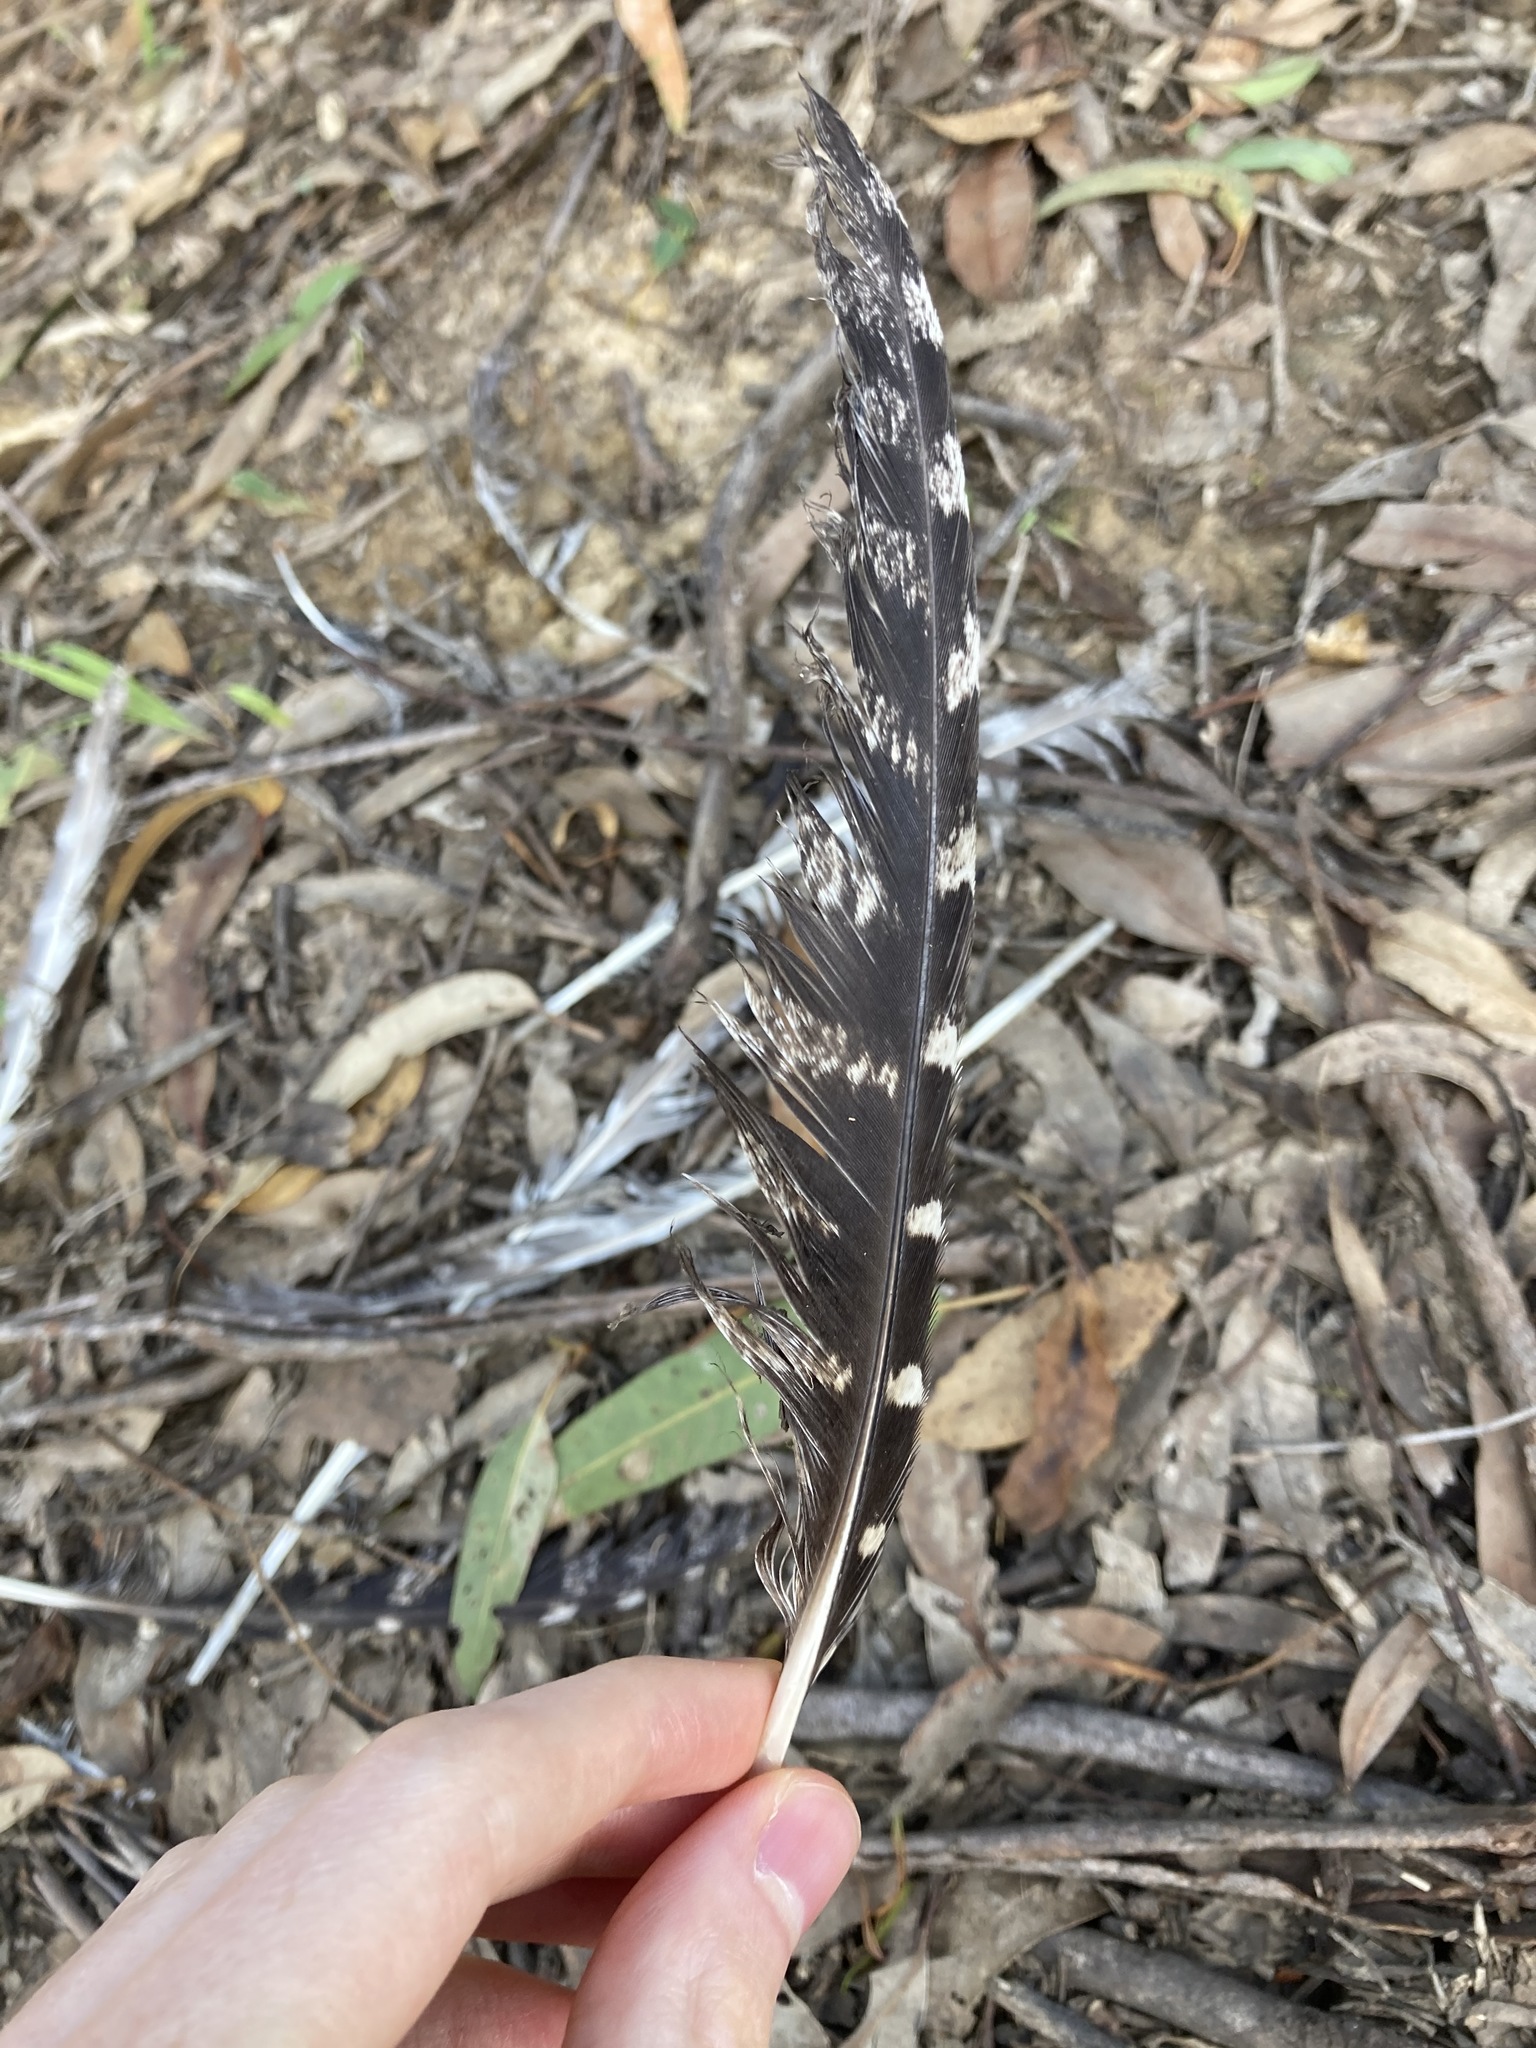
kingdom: Animalia
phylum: Chordata
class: Aves
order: Caprimulgiformes
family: Podargidae
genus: Podargus
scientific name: Podargus strigoides
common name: Tawny frogmouth
